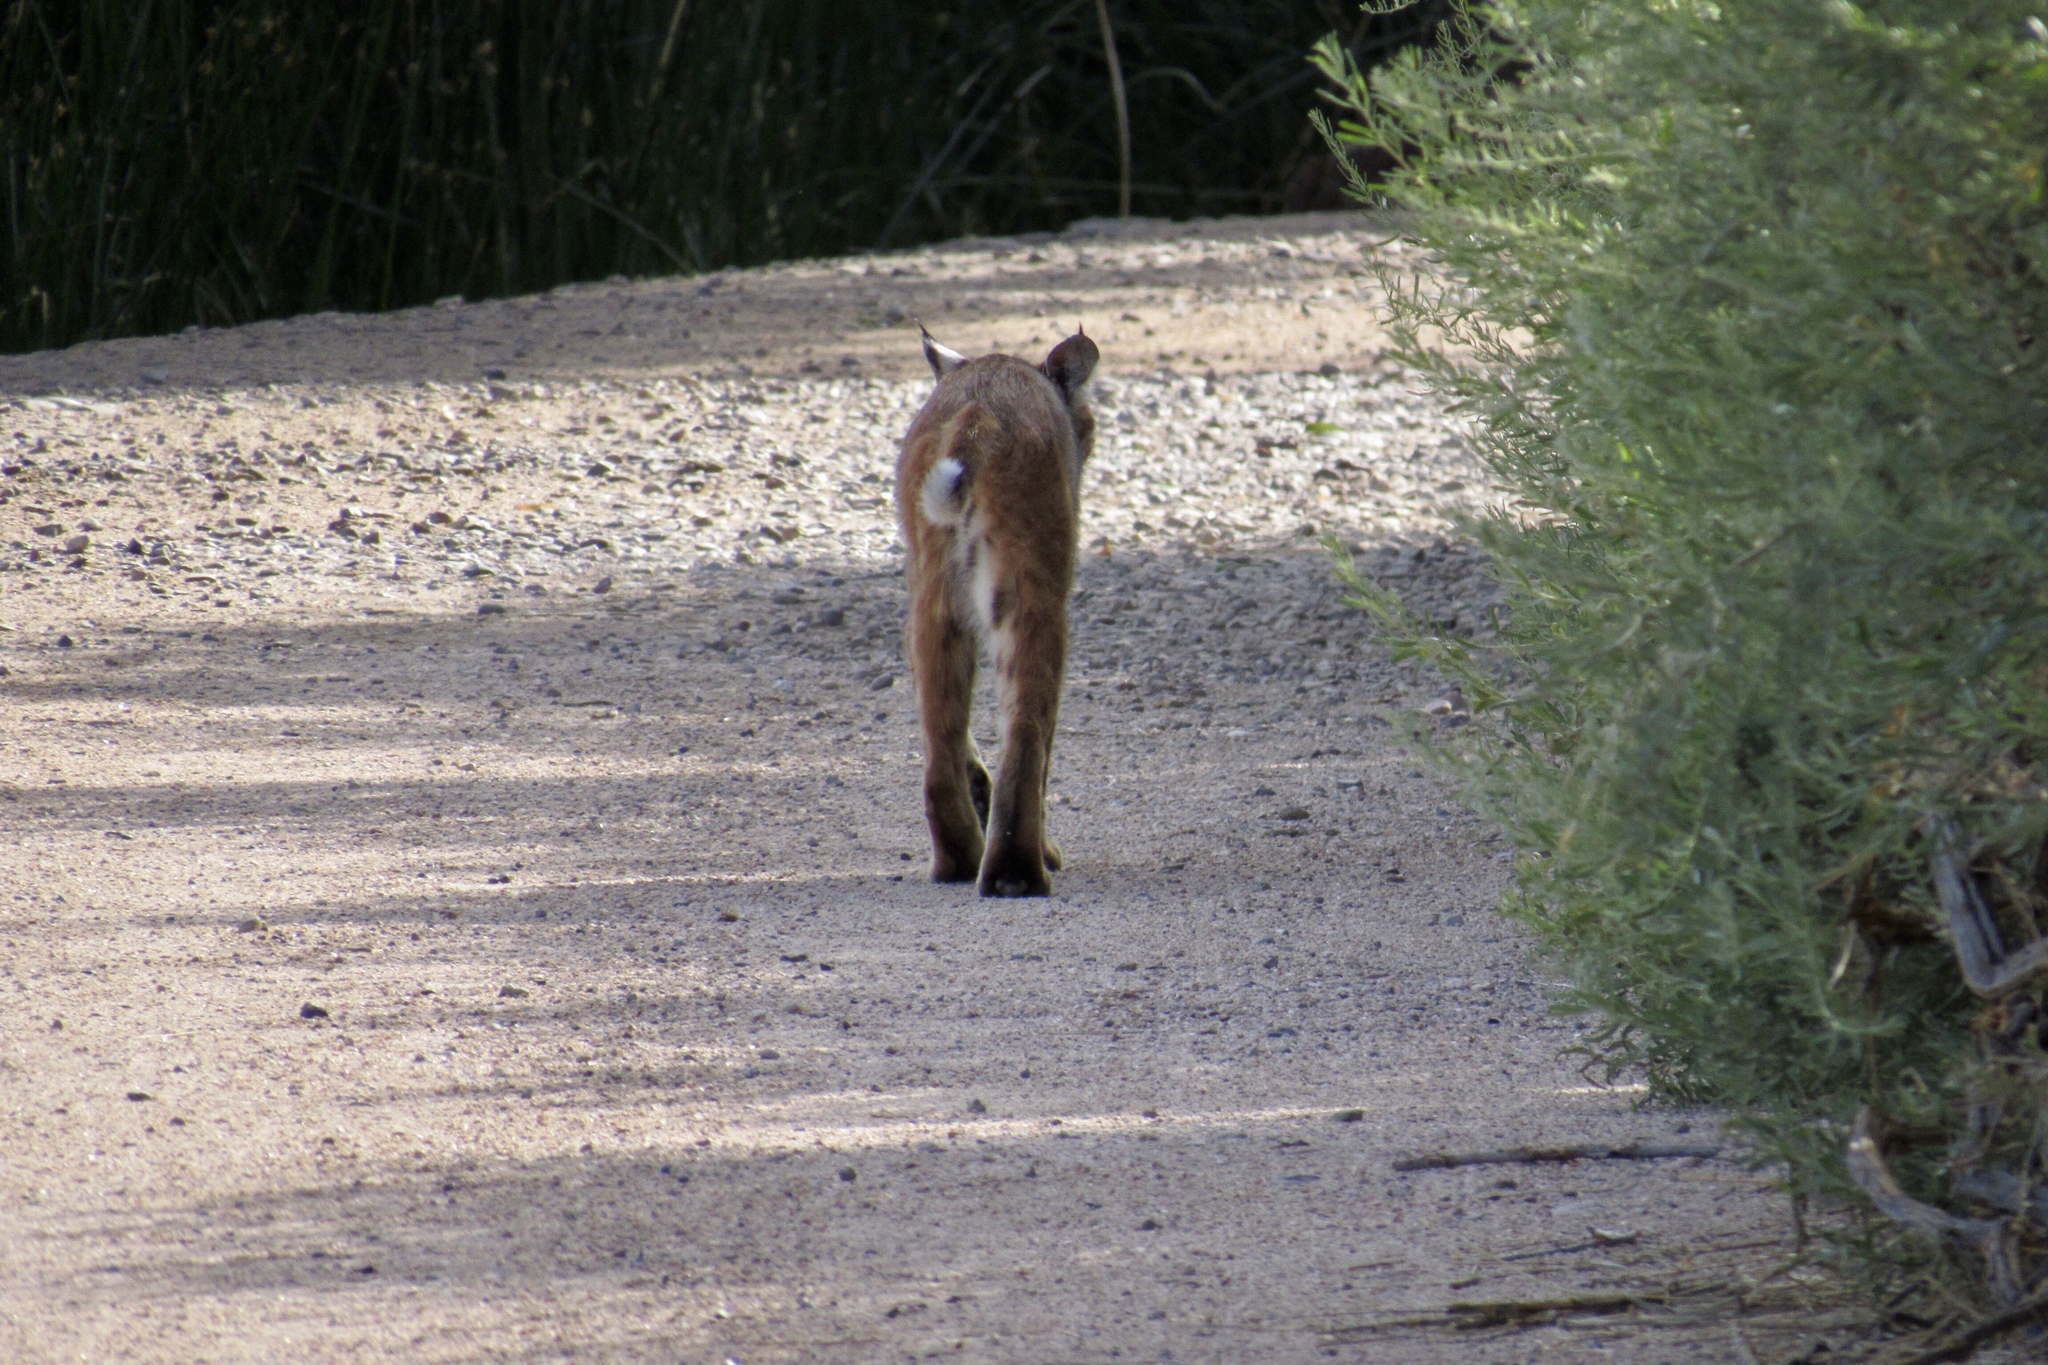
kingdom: Animalia
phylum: Chordata
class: Mammalia
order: Carnivora
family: Felidae
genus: Lynx
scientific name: Lynx rufus
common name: Bobcat
